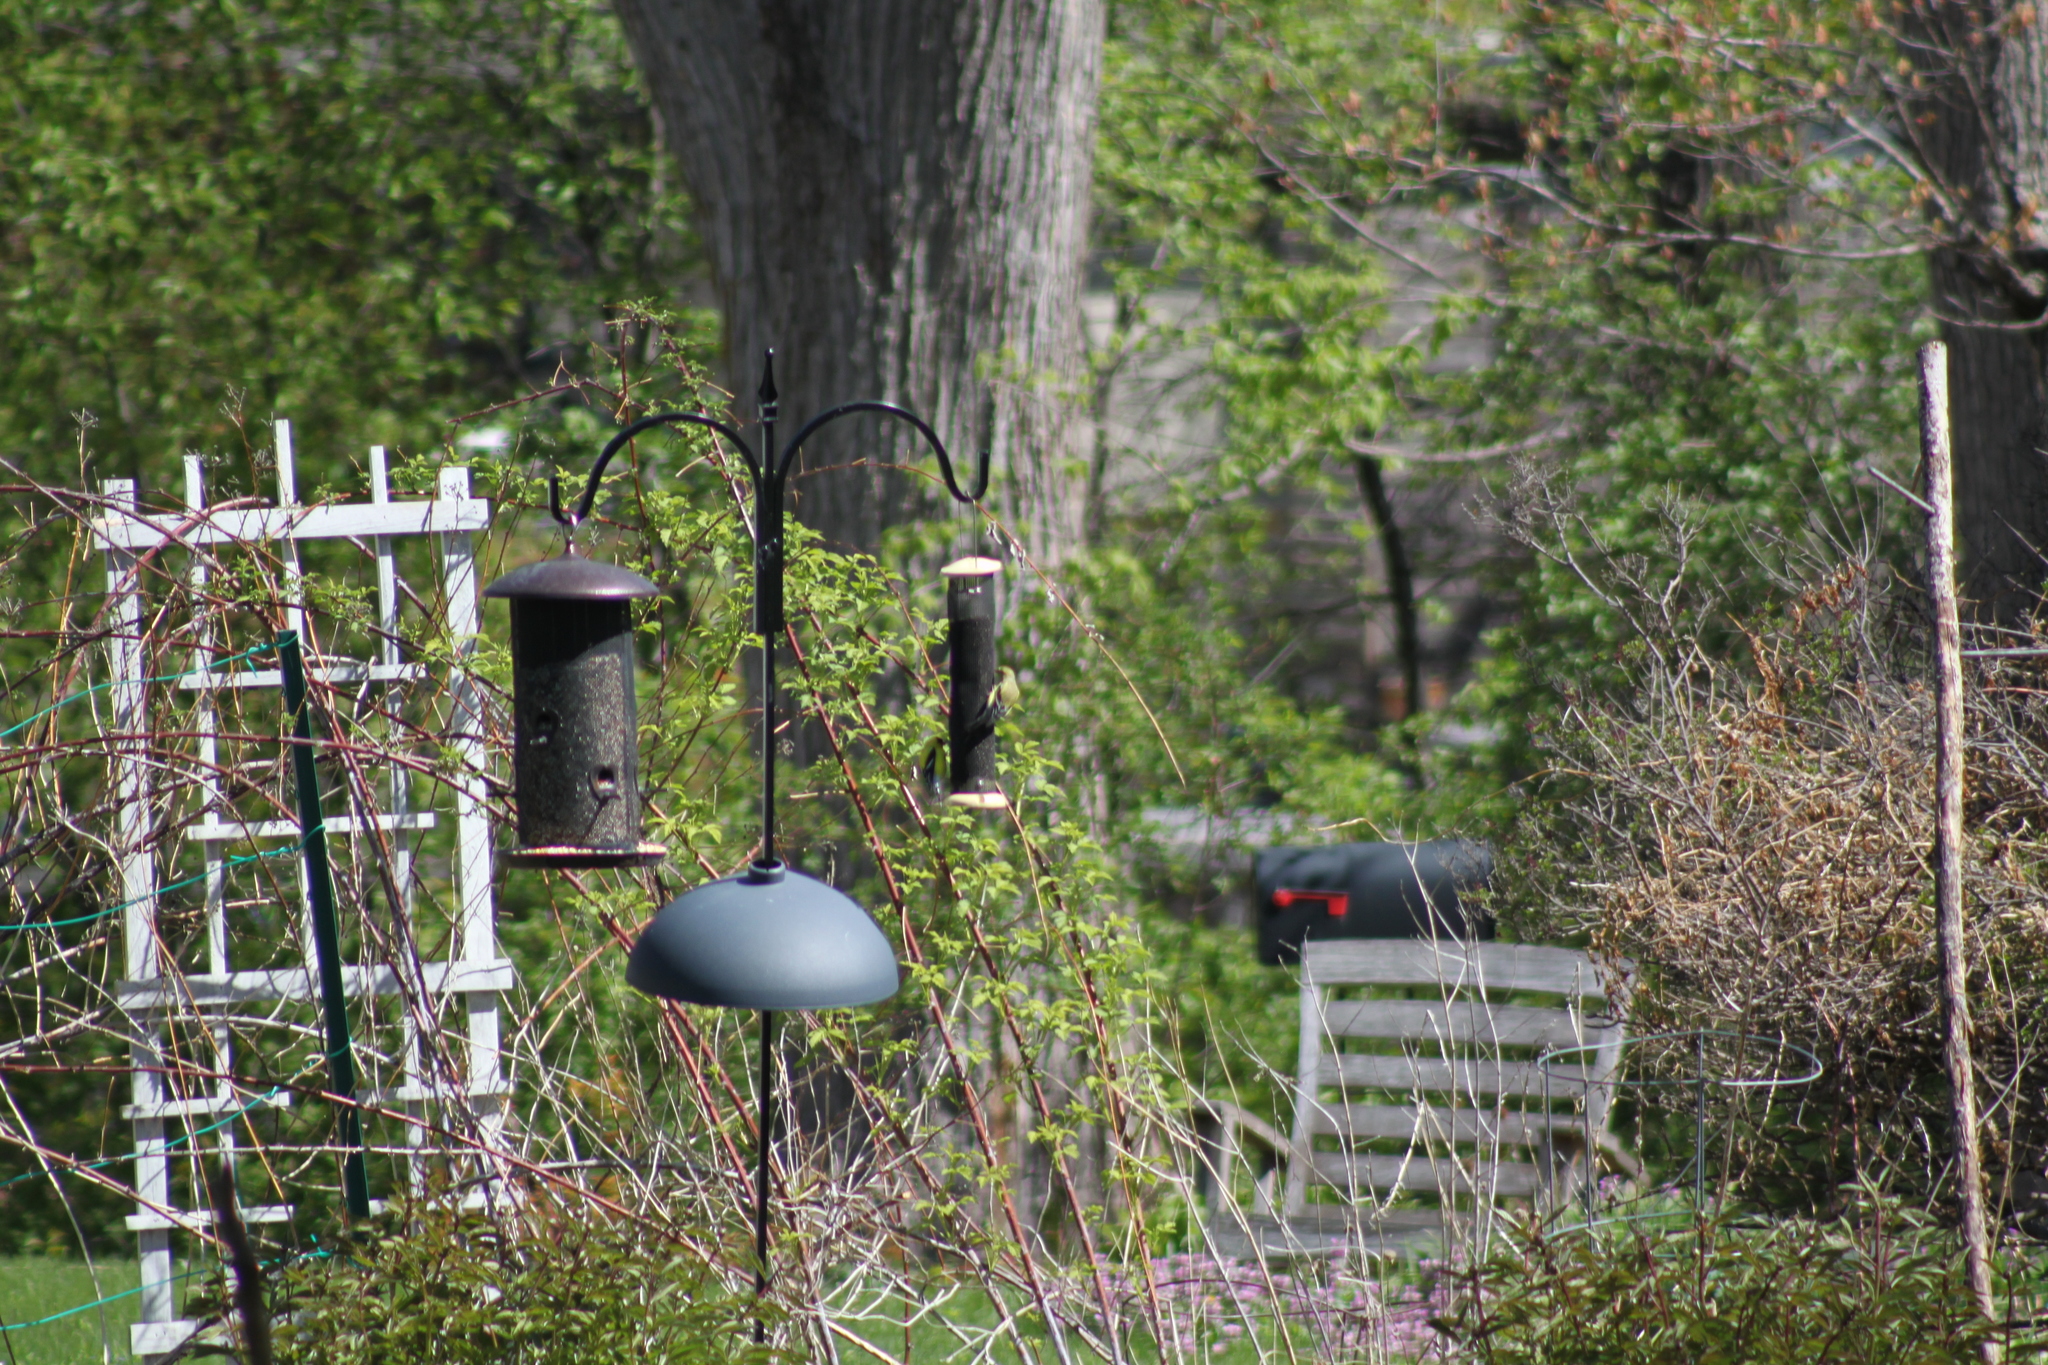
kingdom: Animalia
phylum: Chordata
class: Aves
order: Passeriformes
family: Fringillidae
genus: Spinus
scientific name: Spinus tristis
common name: American goldfinch
